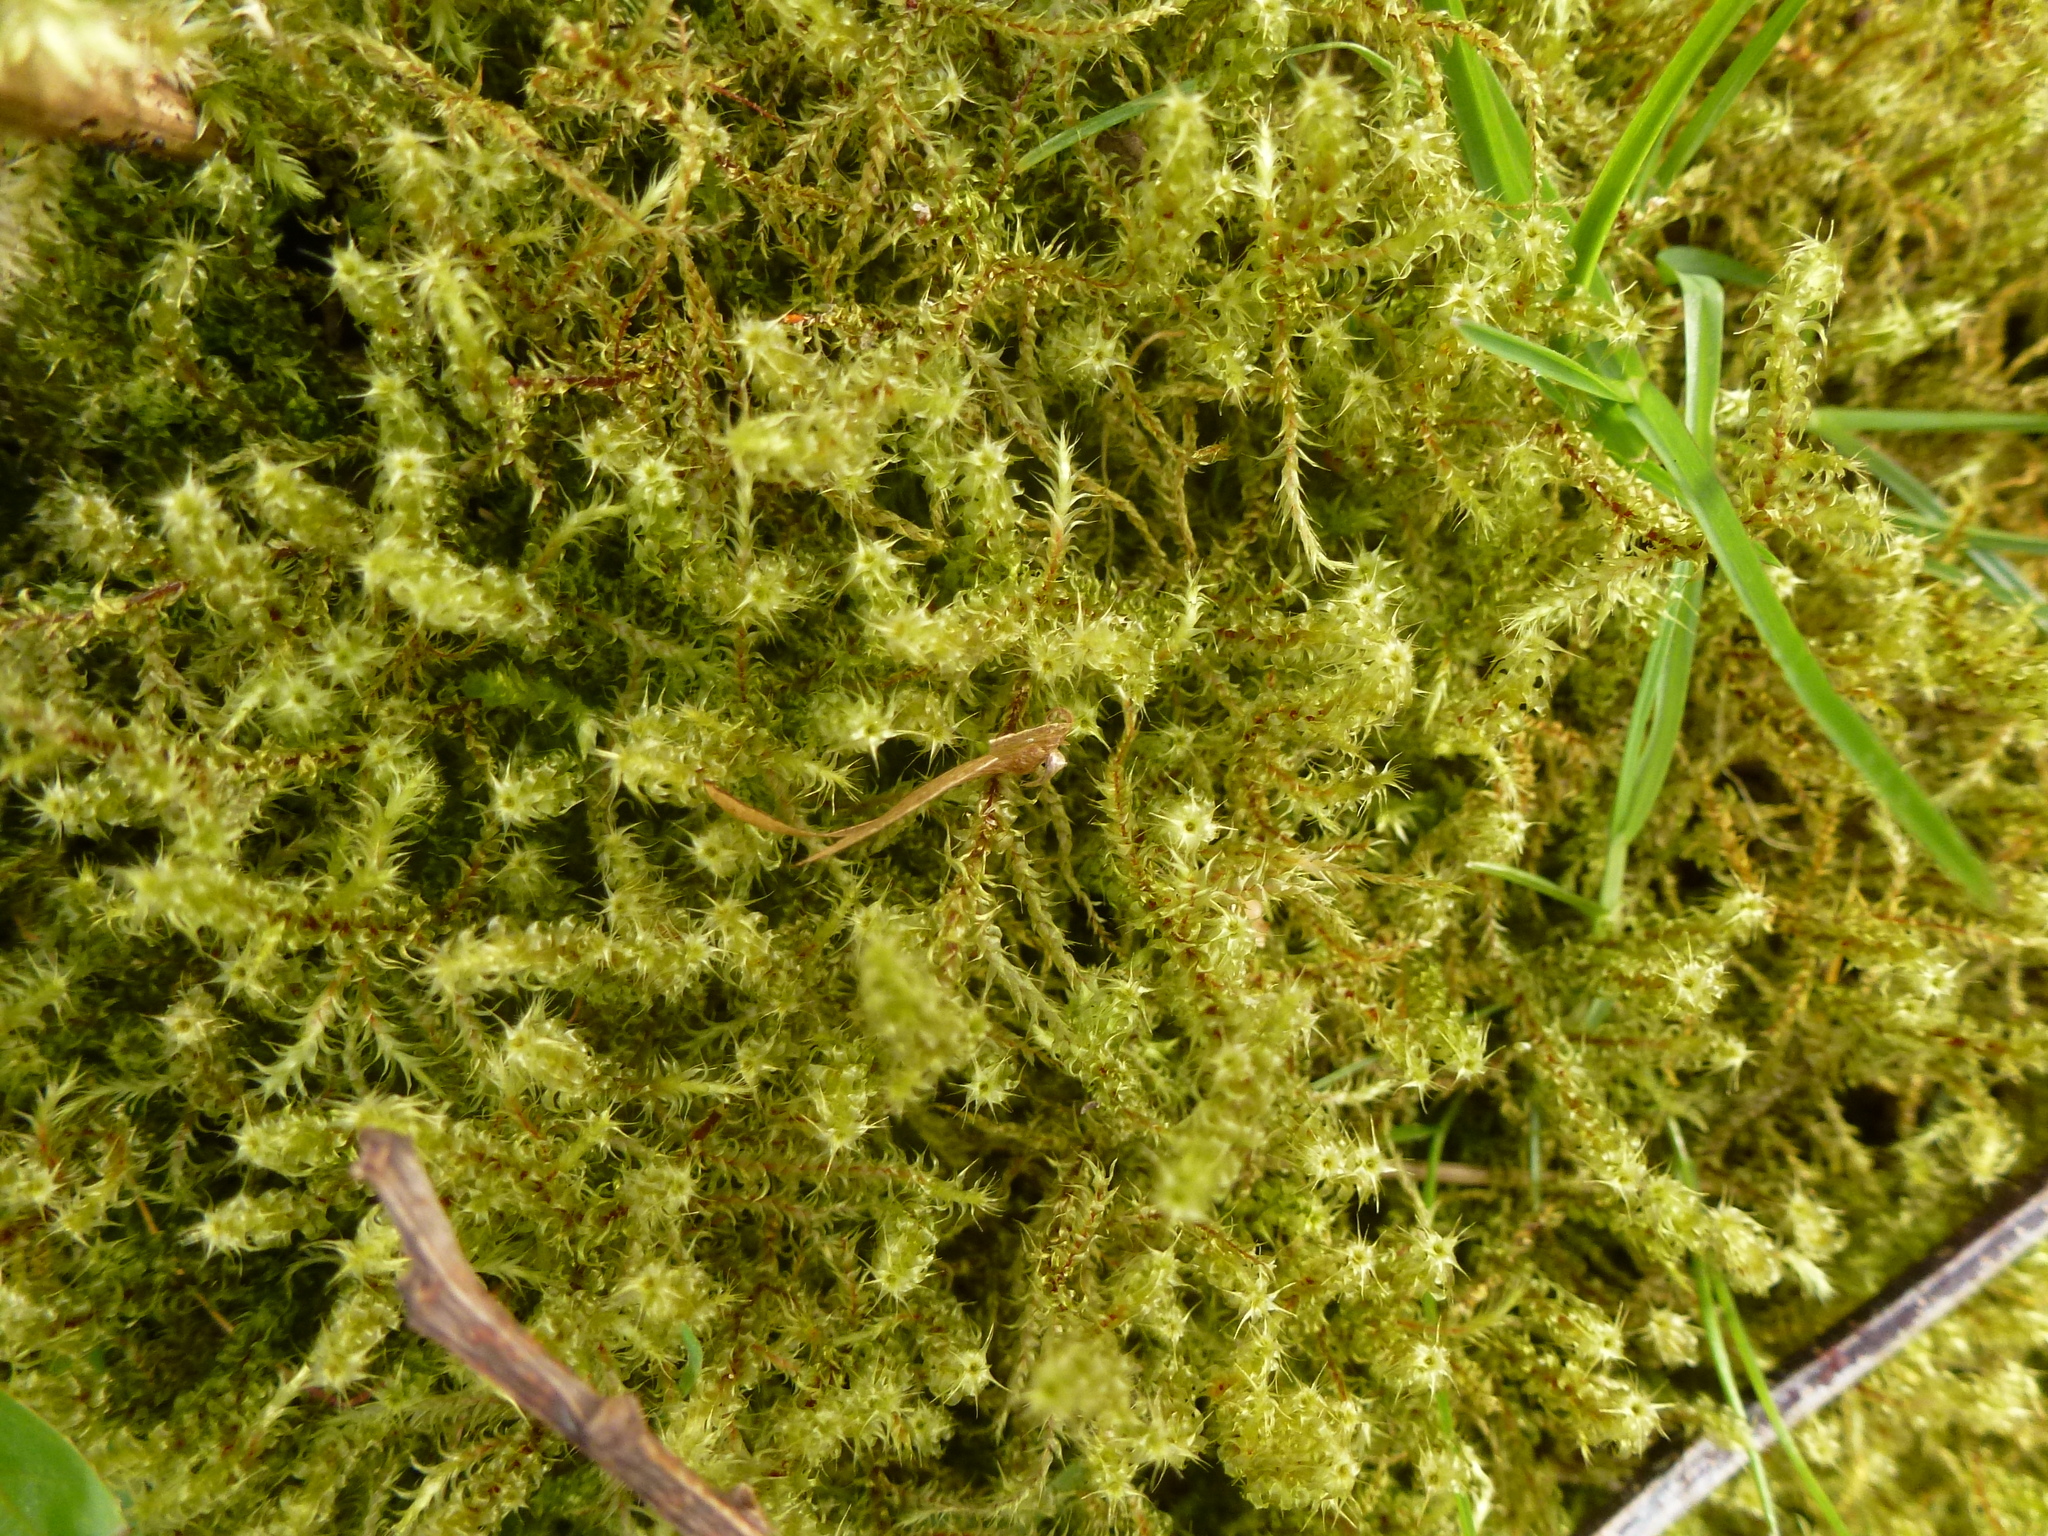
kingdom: Plantae
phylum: Bryophyta
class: Bryopsida
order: Hypnales
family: Hylocomiaceae
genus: Rhytidiadelphus
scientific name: Rhytidiadelphus squarrosus
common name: Springy turf-moss
